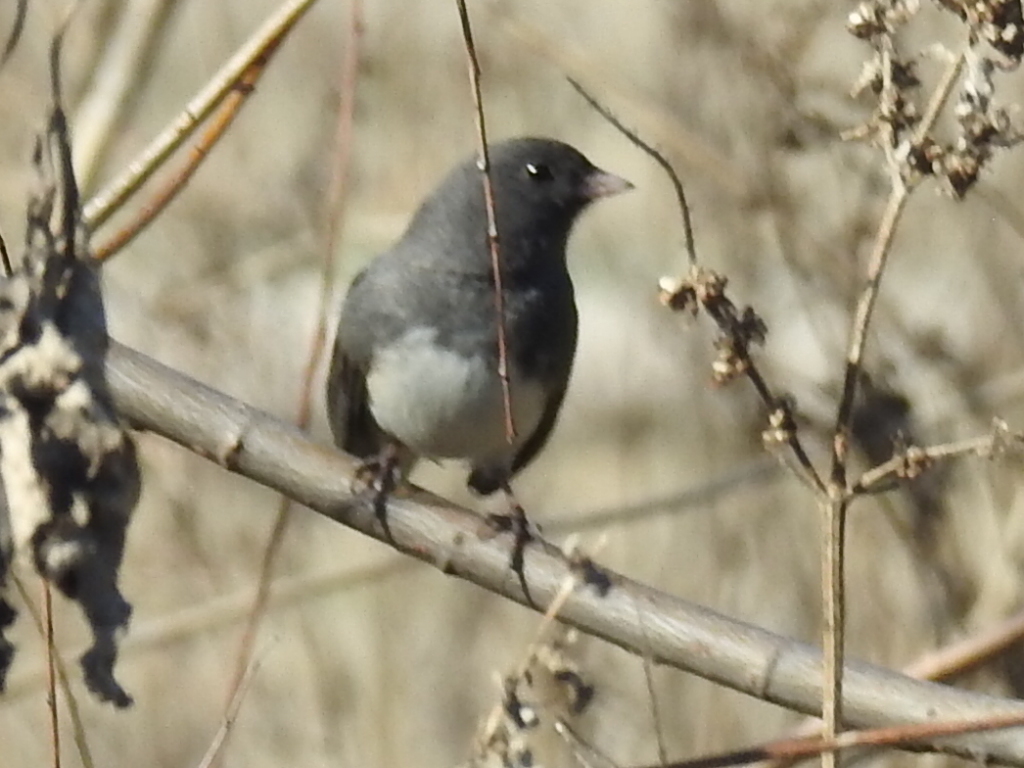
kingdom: Animalia
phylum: Chordata
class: Aves
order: Passeriformes
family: Passerellidae
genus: Junco
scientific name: Junco hyemalis
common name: Dark-eyed junco
